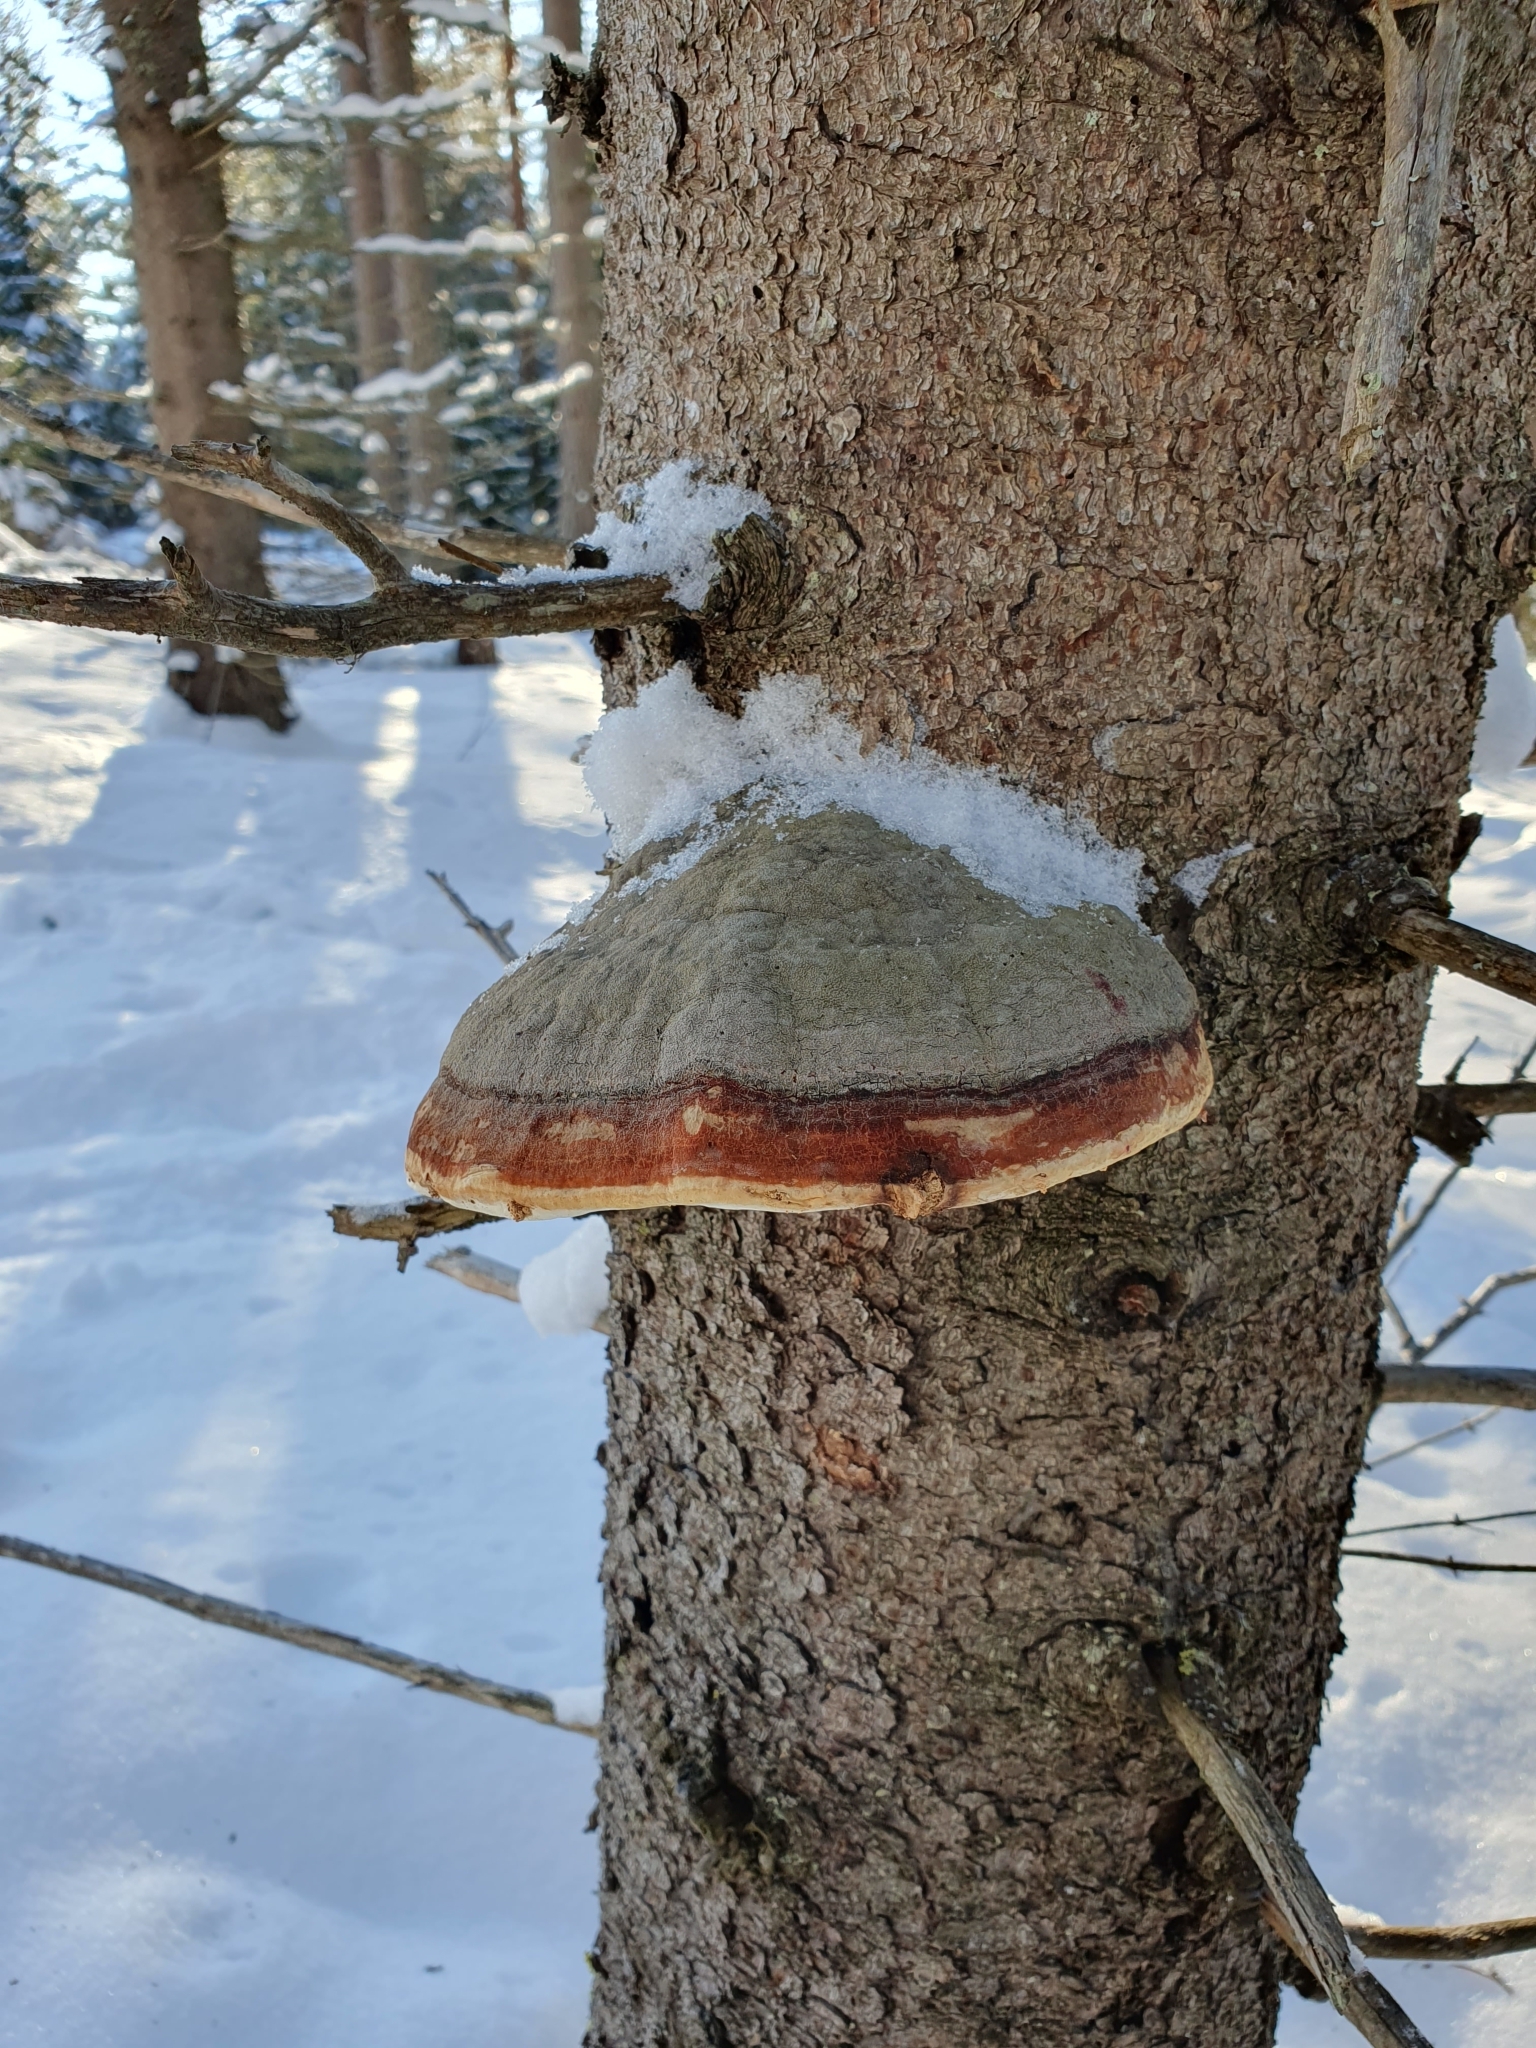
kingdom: Fungi
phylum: Basidiomycota
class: Agaricomycetes
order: Polyporales
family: Fomitopsidaceae
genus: Fomitopsis
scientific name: Fomitopsis pinicola
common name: Red-belted bracket
